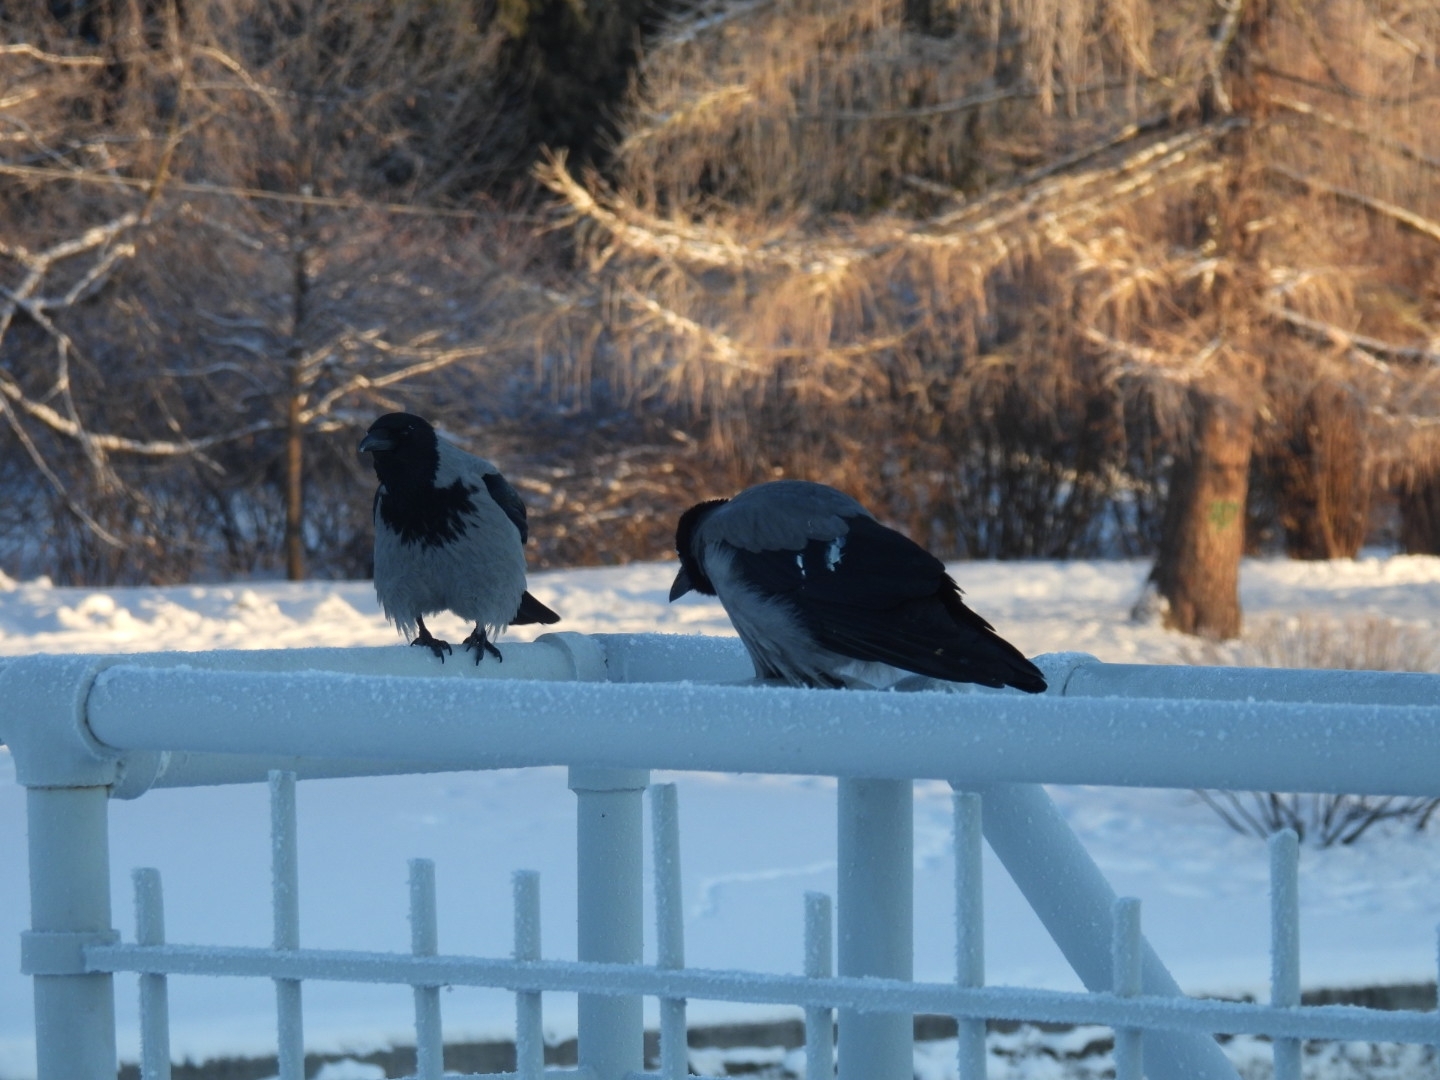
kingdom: Animalia
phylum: Chordata
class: Aves
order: Passeriformes
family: Corvidae
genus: Corvus
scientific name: Corvus cornix
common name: Hooded crow
